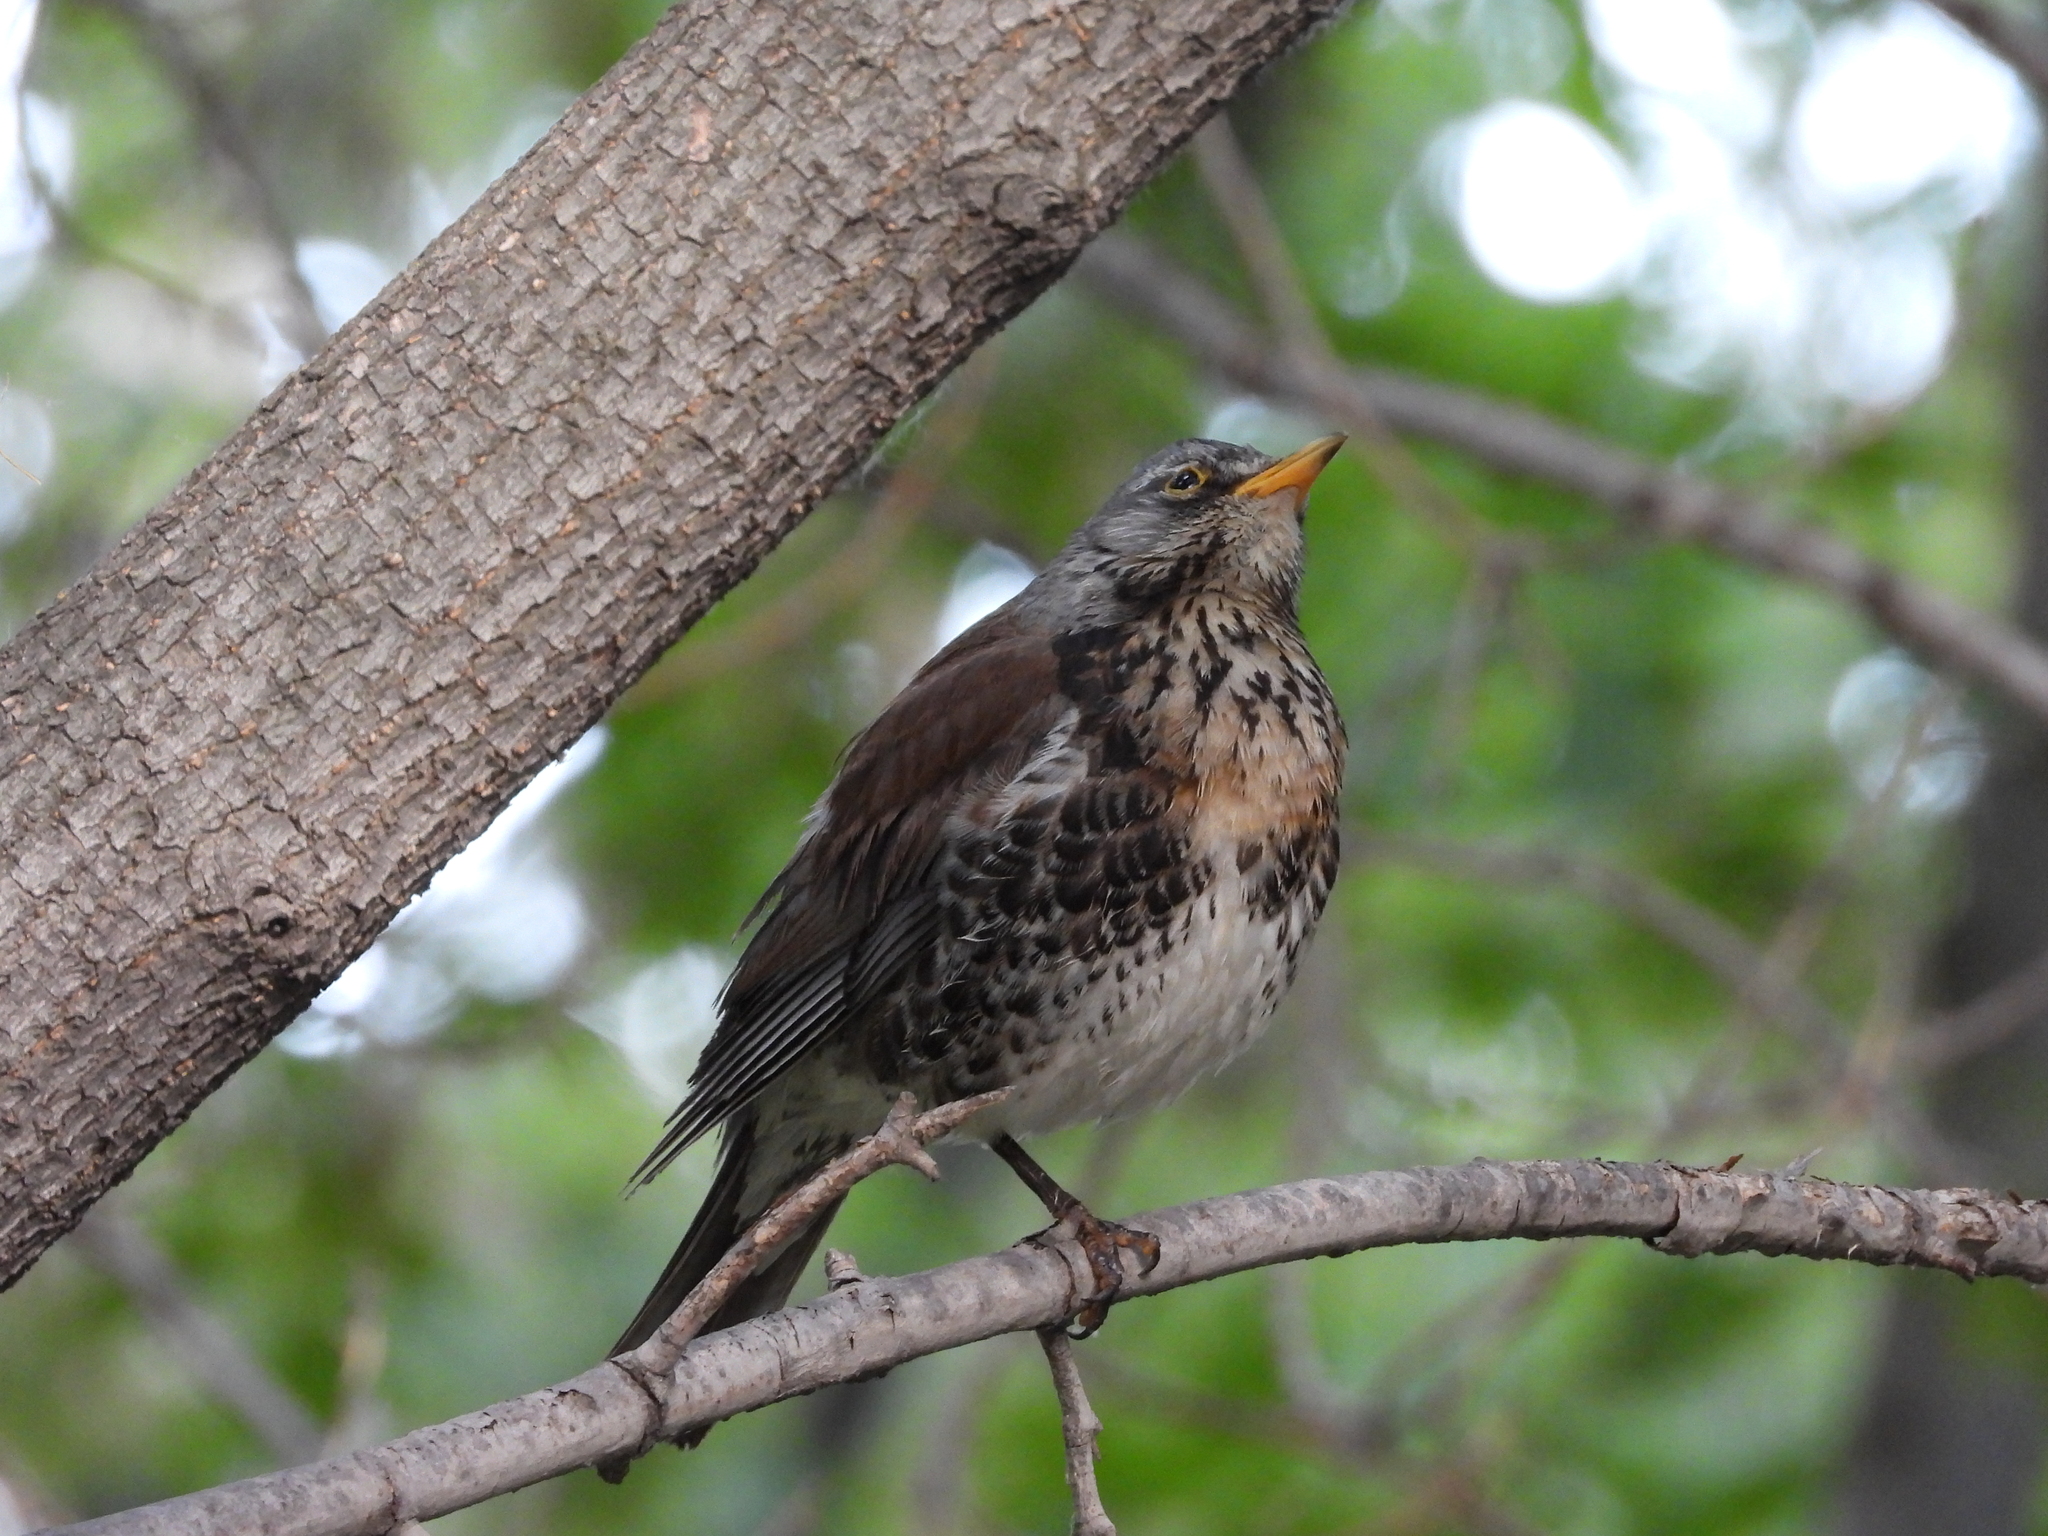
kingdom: Animalia
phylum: Chordata
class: Aves
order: Passeriformes
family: Turdidae
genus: Turdus
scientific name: Turdus pilaris
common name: Fieldfare
